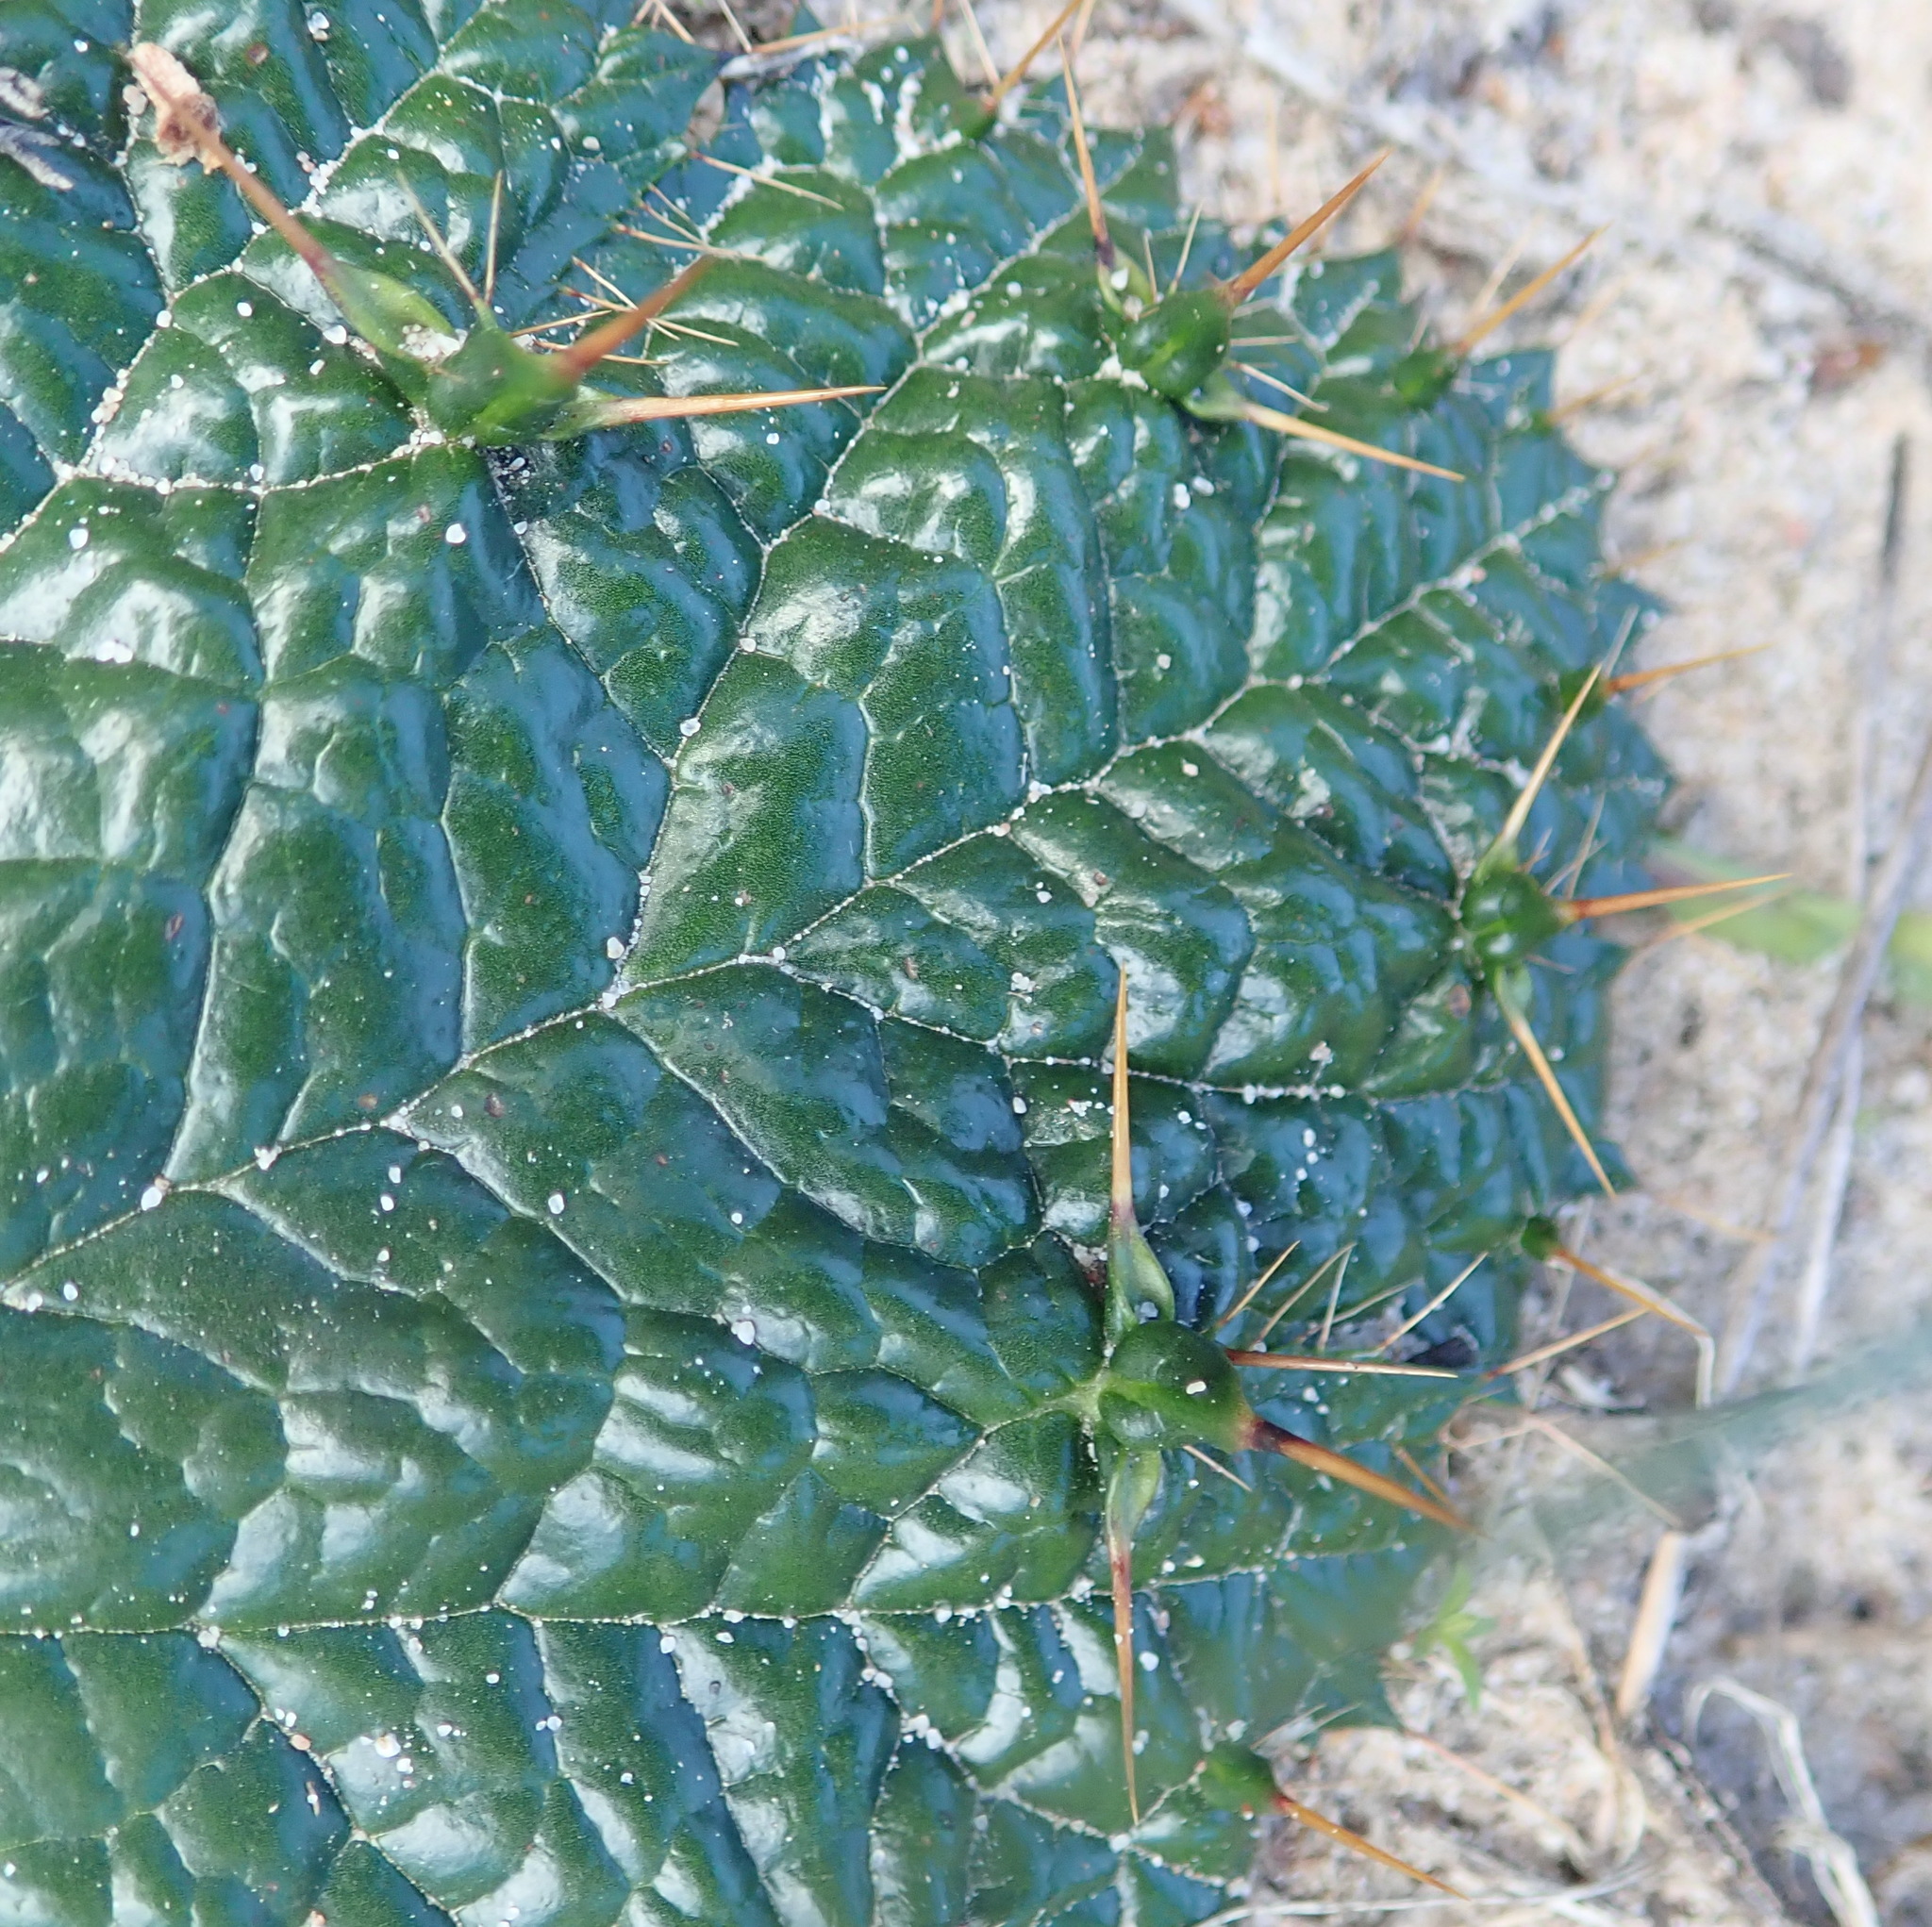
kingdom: Plantae
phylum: Tracheophyta
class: Magnoliopsida
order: Apiales
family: Apiaceae
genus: Arctopus
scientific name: Arctopus echinatus
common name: Platdoring
